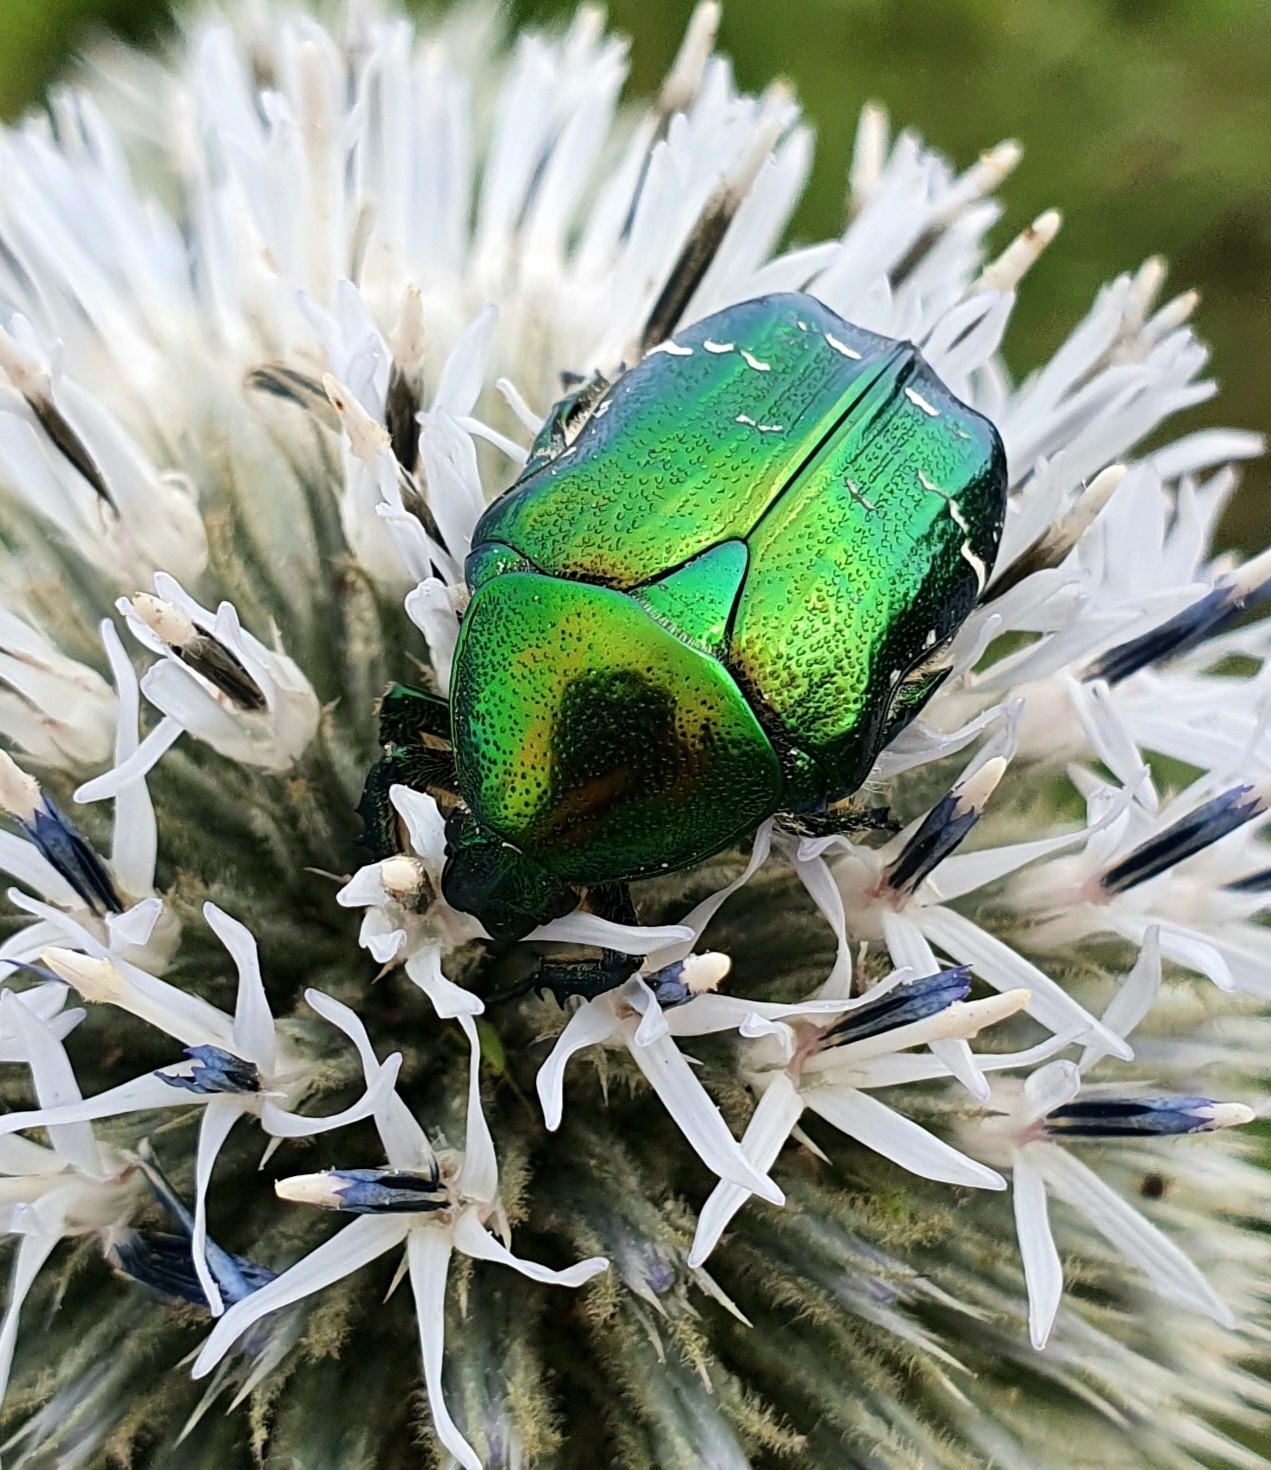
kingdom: Animalia
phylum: Arthropoda
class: Insecta
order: Coleoptera
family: Scarabaeidae
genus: Cetonia
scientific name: Cetonia aurata
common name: Rose chafer
